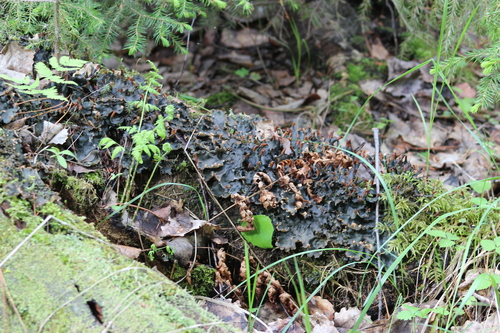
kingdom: Fungi
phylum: Ascomycota
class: Lecanoromycetes
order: Peltigerales
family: Peltigeraceae
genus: Peltigera
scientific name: Peltigera polydactylon
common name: Many-fruited pelt lichen
